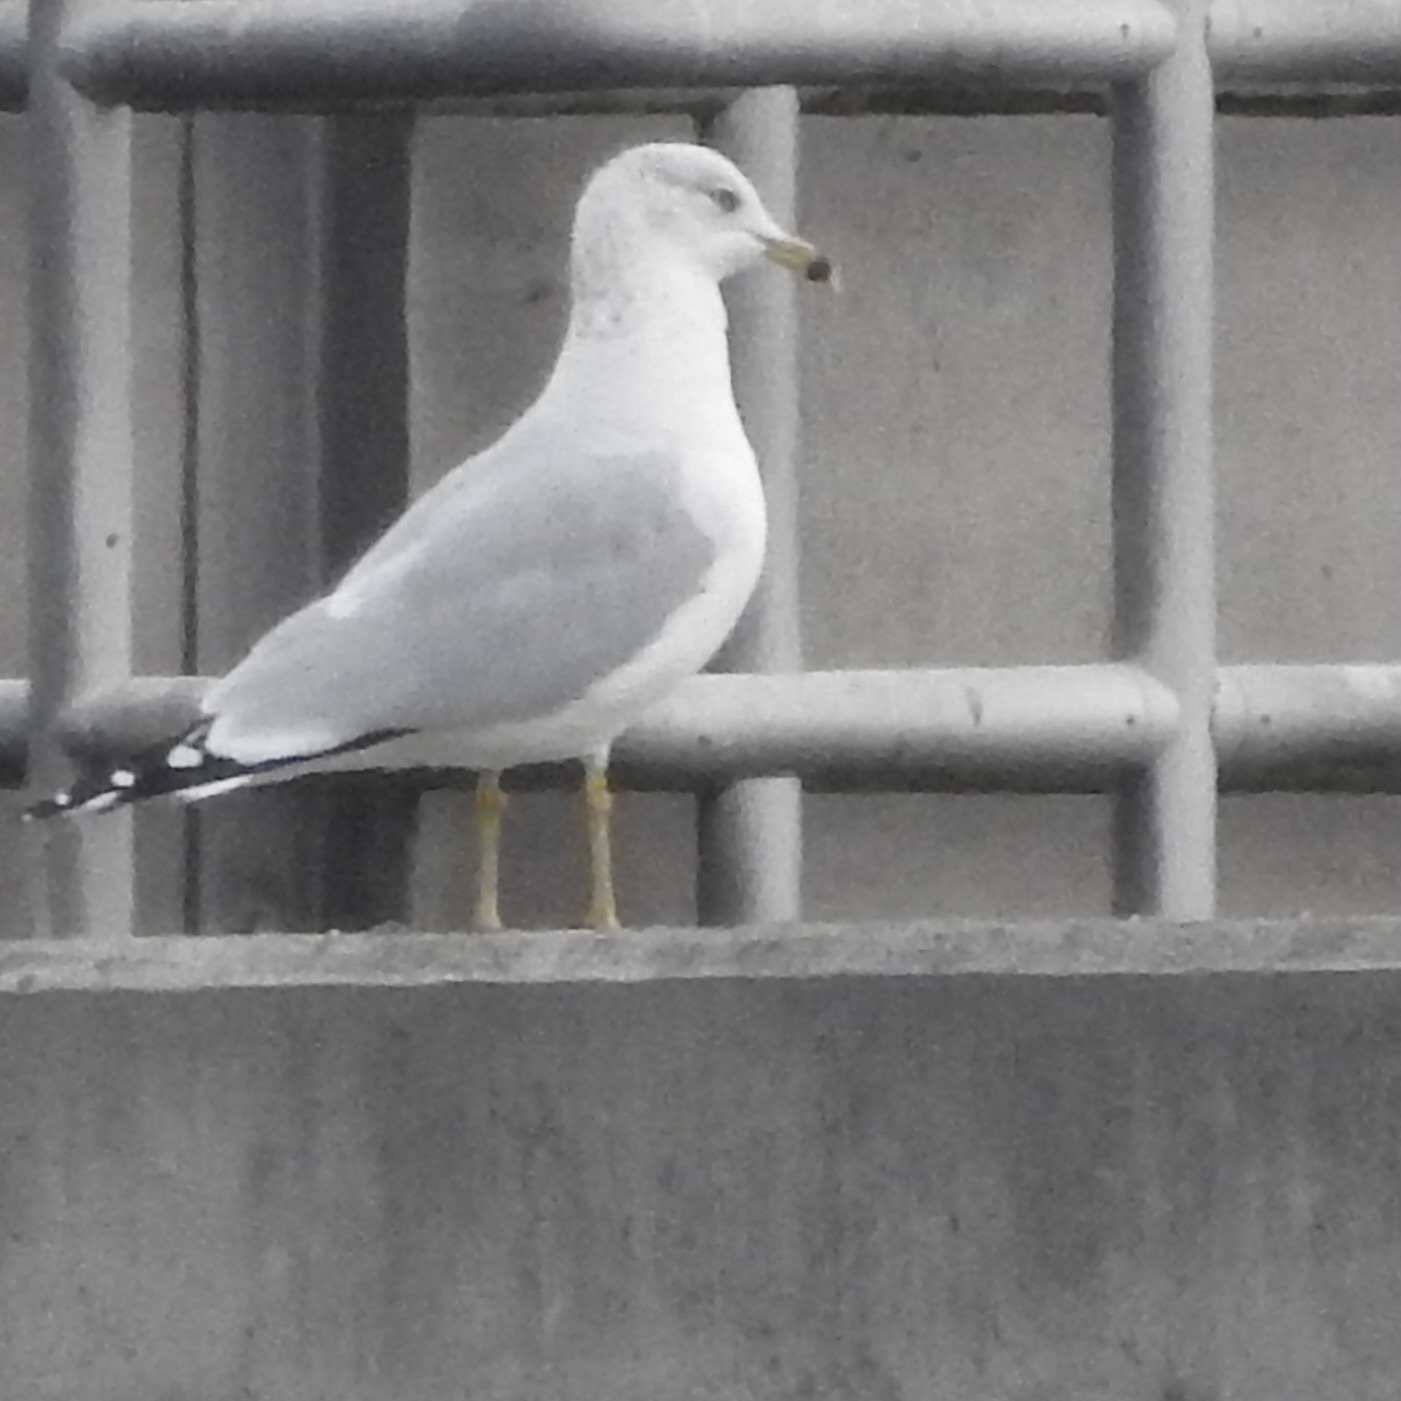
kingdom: Animalia
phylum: Chordata
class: Aves
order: Charadriiformes
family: Laridae
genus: Larus
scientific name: Larus delawarensis
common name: Ring-billed gull
